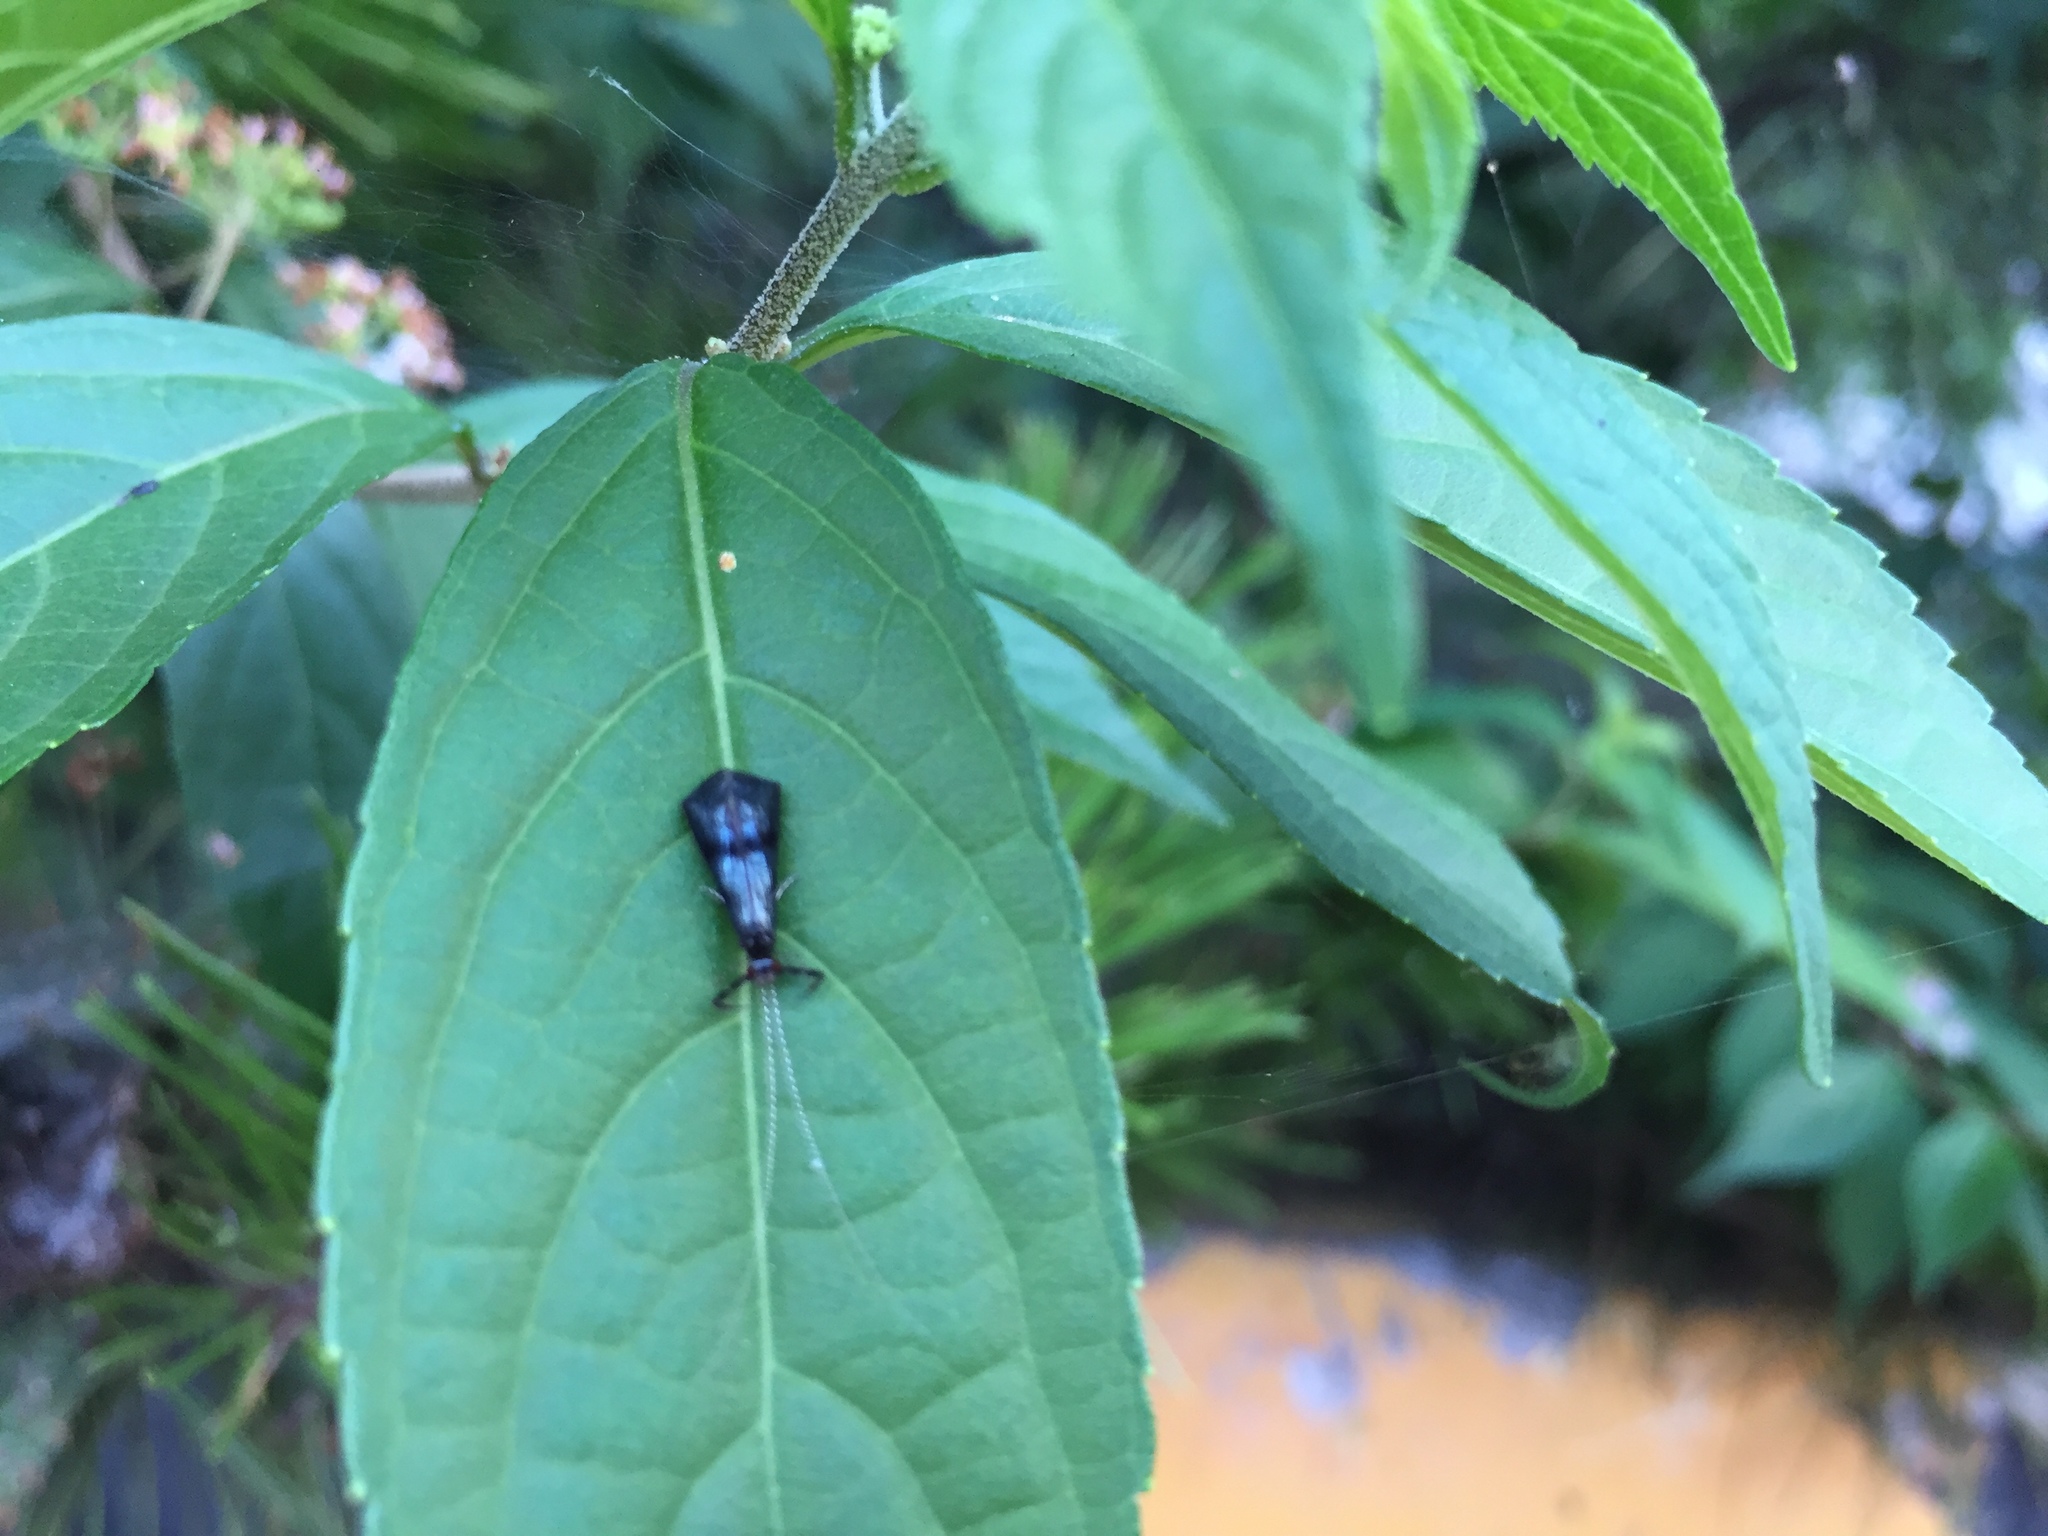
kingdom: Animalia
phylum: Arthropoda
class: Insecta
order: Trichoptera
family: Leptoceridae
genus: Mystacides
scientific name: Mystacides azureus
